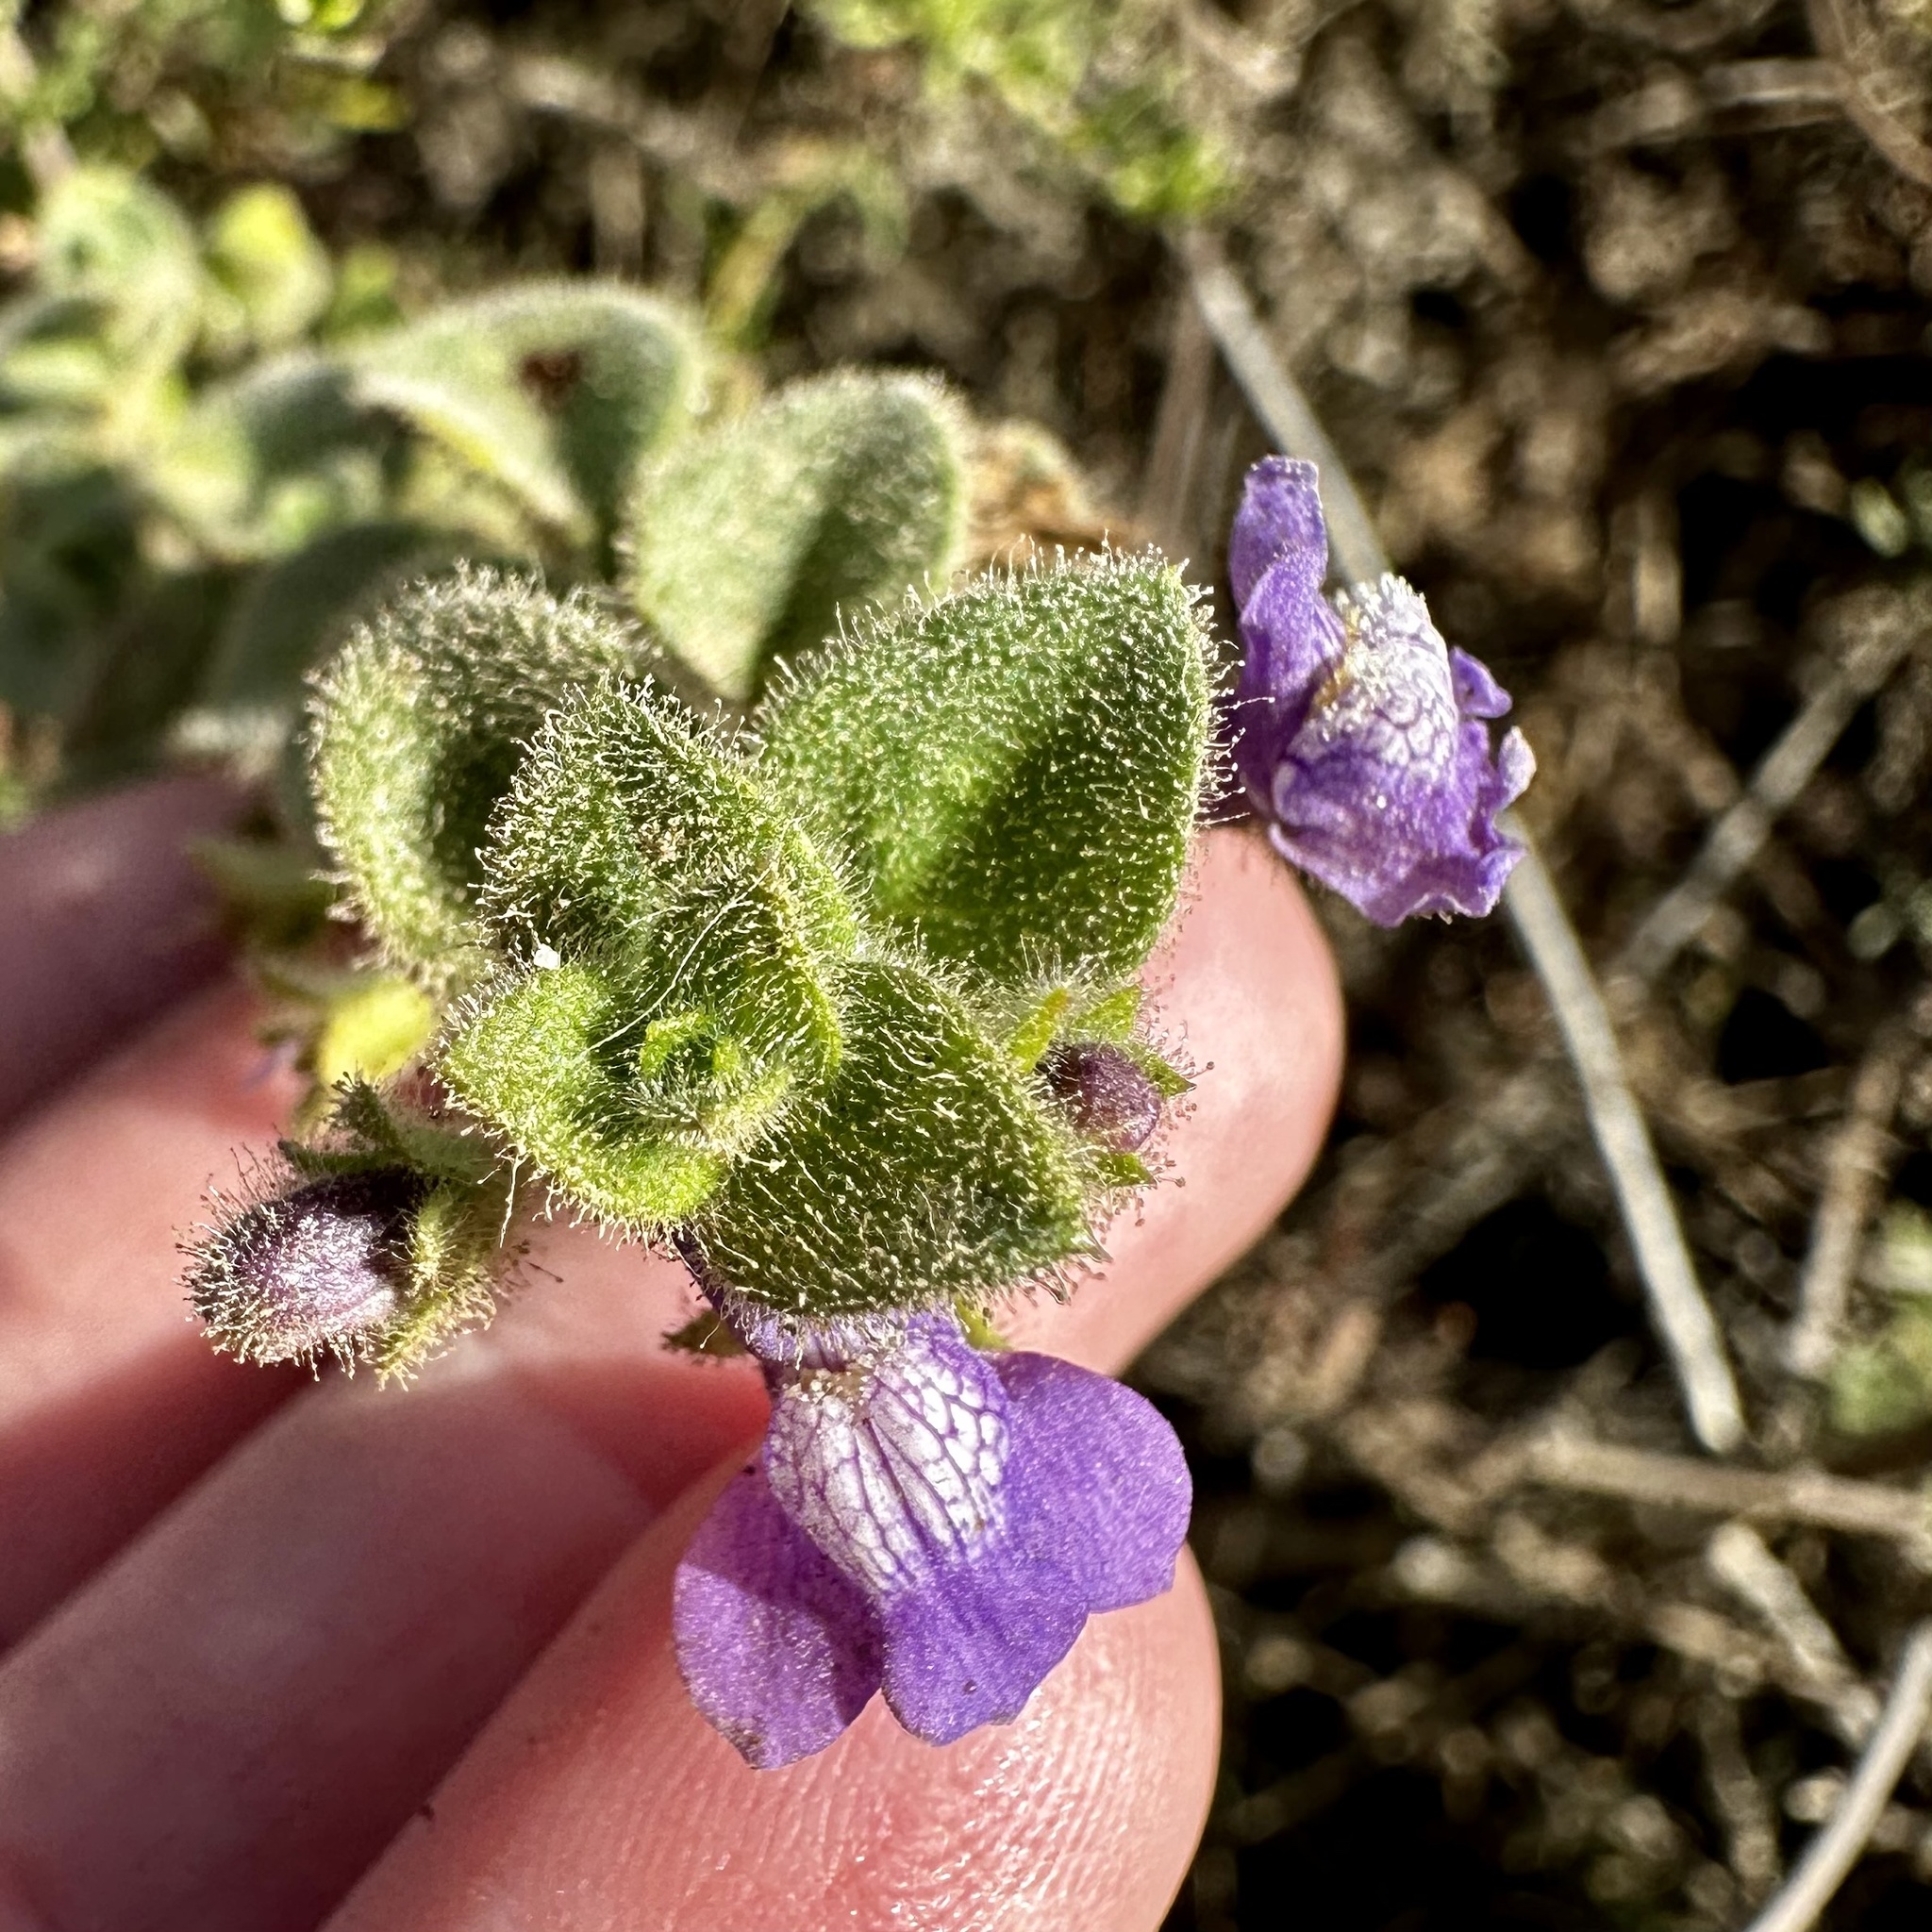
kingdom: Plantae
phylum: Tracheophyta
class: Magnoliopsida
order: Lamiales
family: Plantaginaceae
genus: Sairocarpus
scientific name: Sairocarpus nuttallianus
